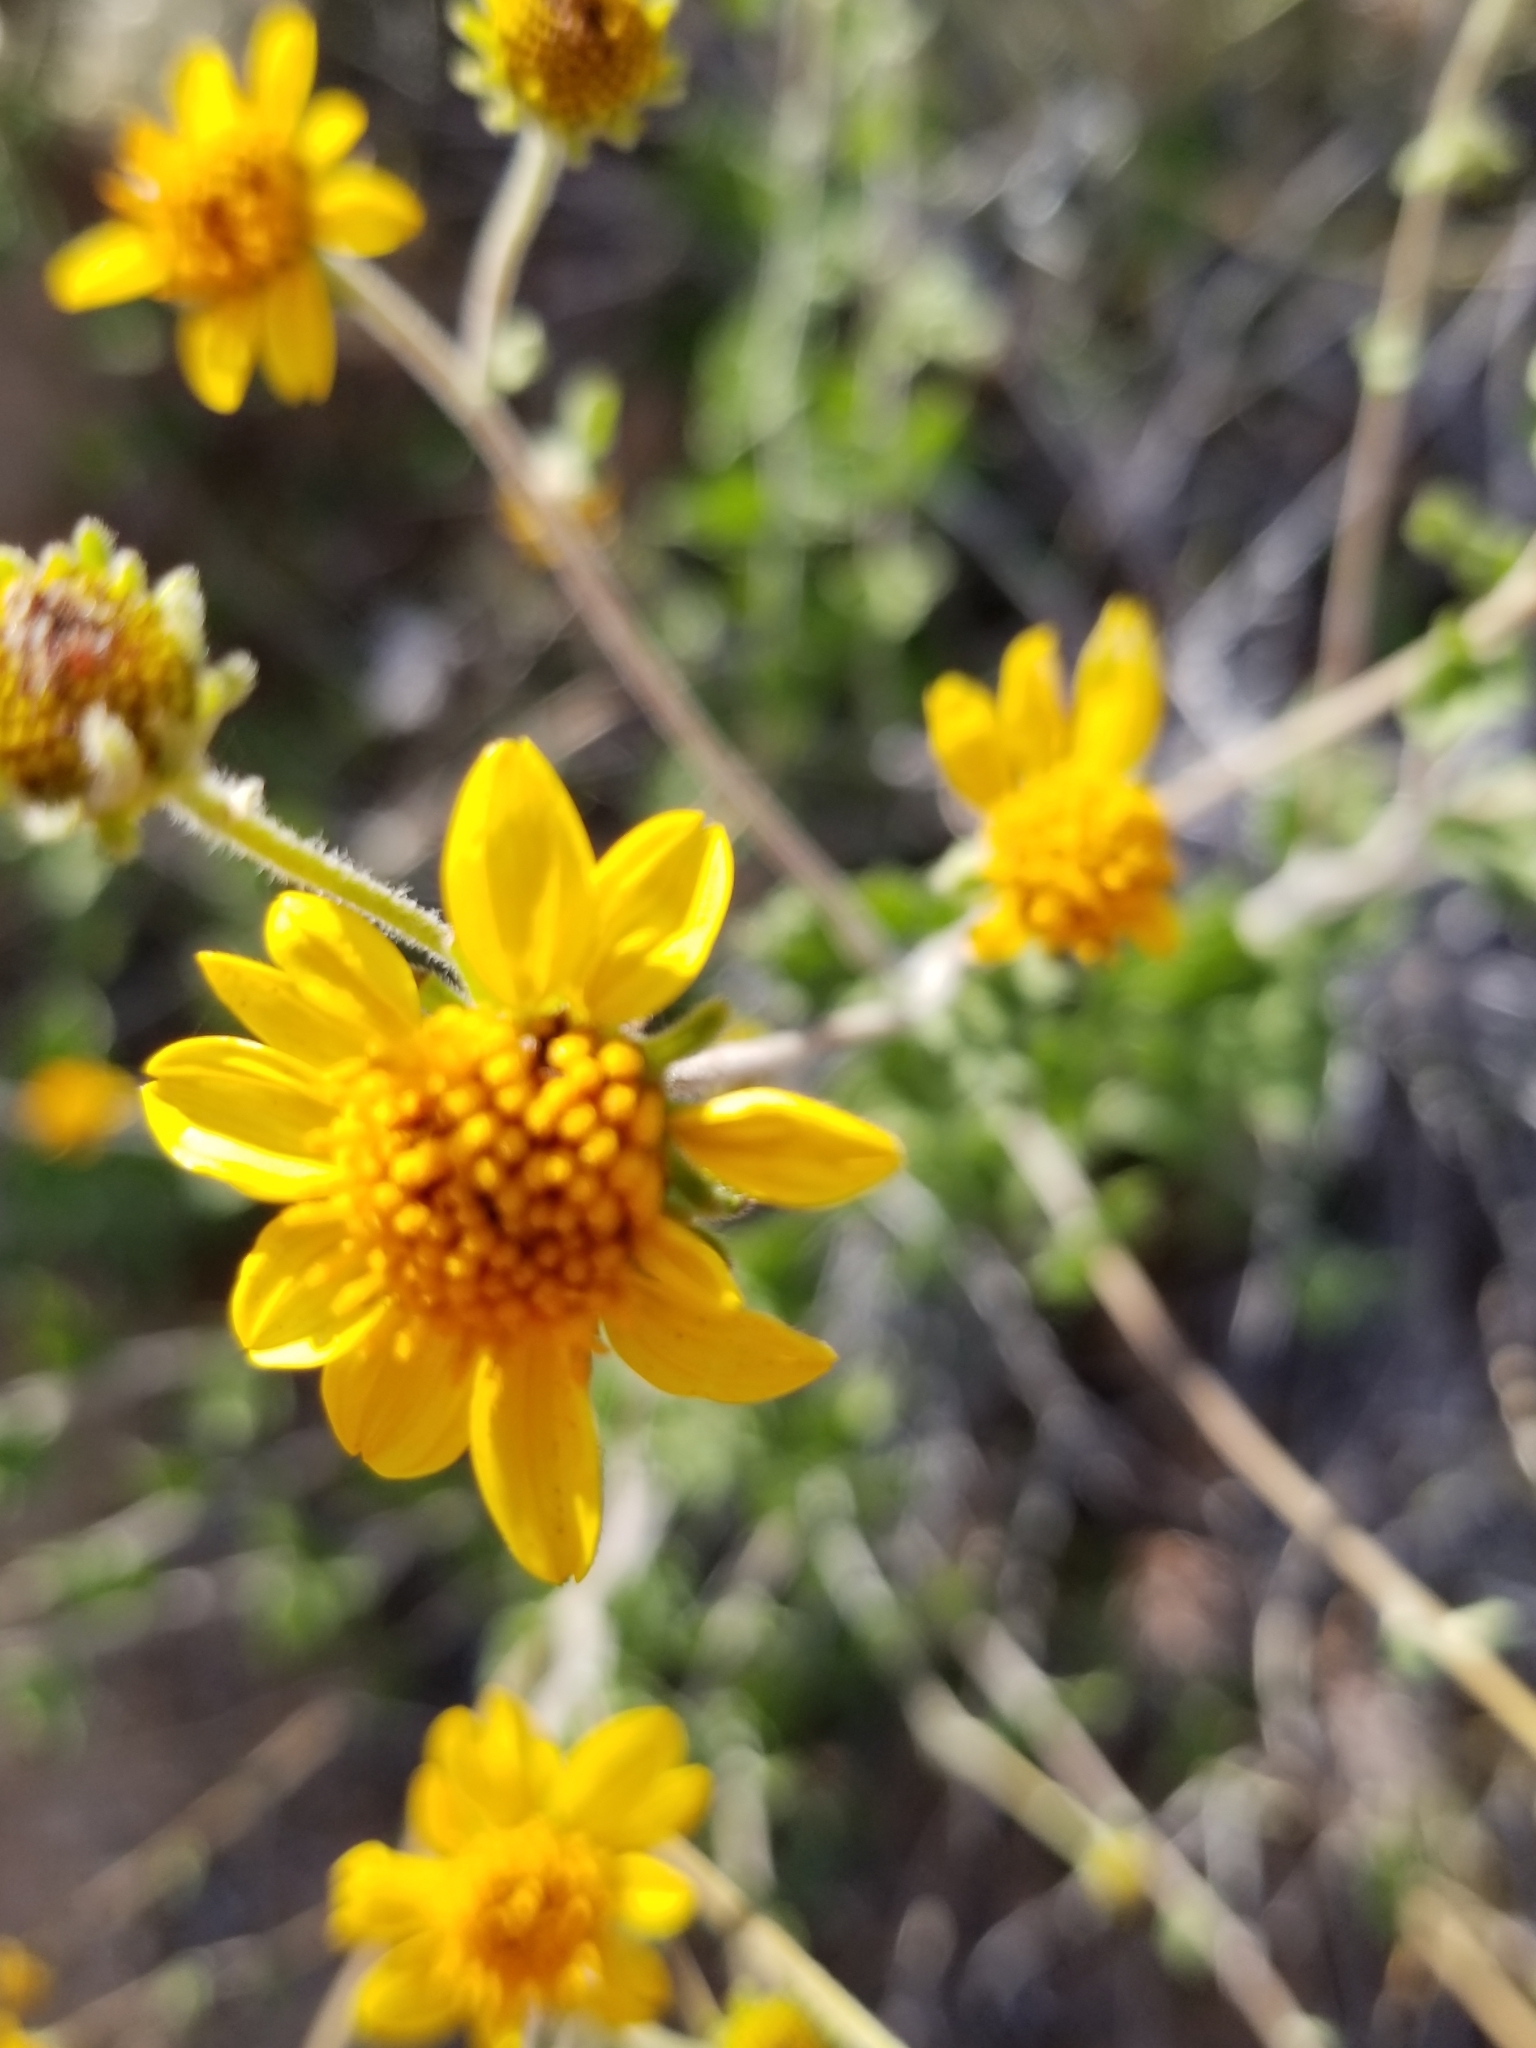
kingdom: Plantae
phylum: Tracheophyta
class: Magnoliopsida
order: Asterales
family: Asteraceae
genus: Bahiopsis
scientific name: Bahiopsis parishii
